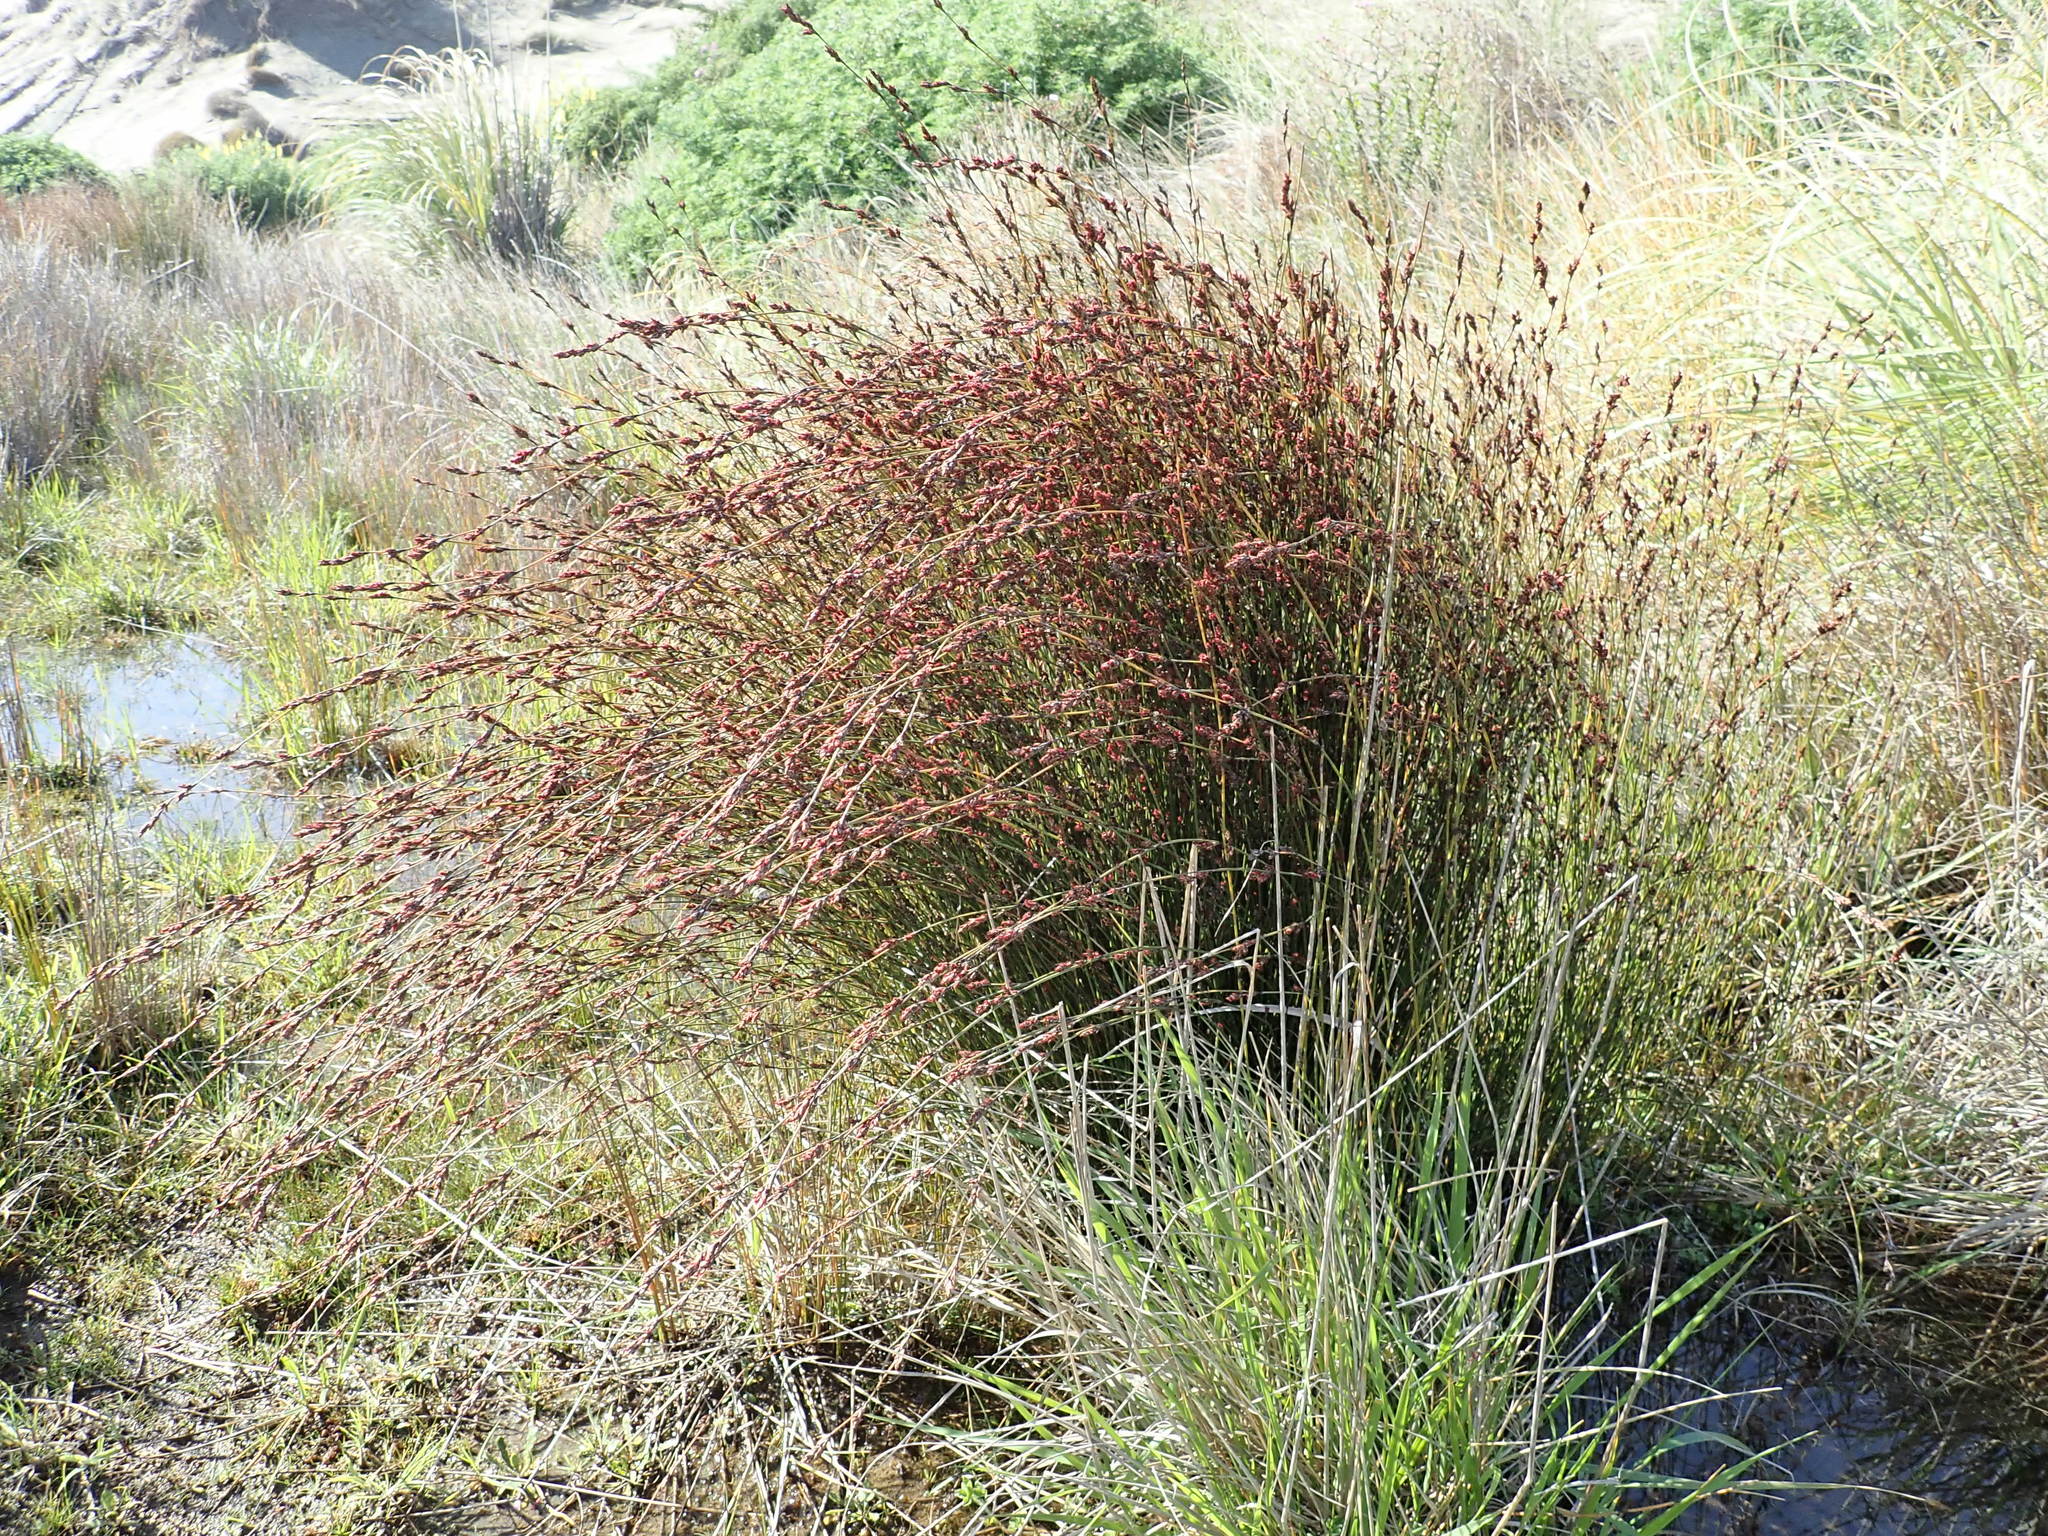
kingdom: Plantae
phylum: Tracheophyta
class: Liliopsida
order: Poales
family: Restionaceae
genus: Apodasmia
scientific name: Apodasmia similis
